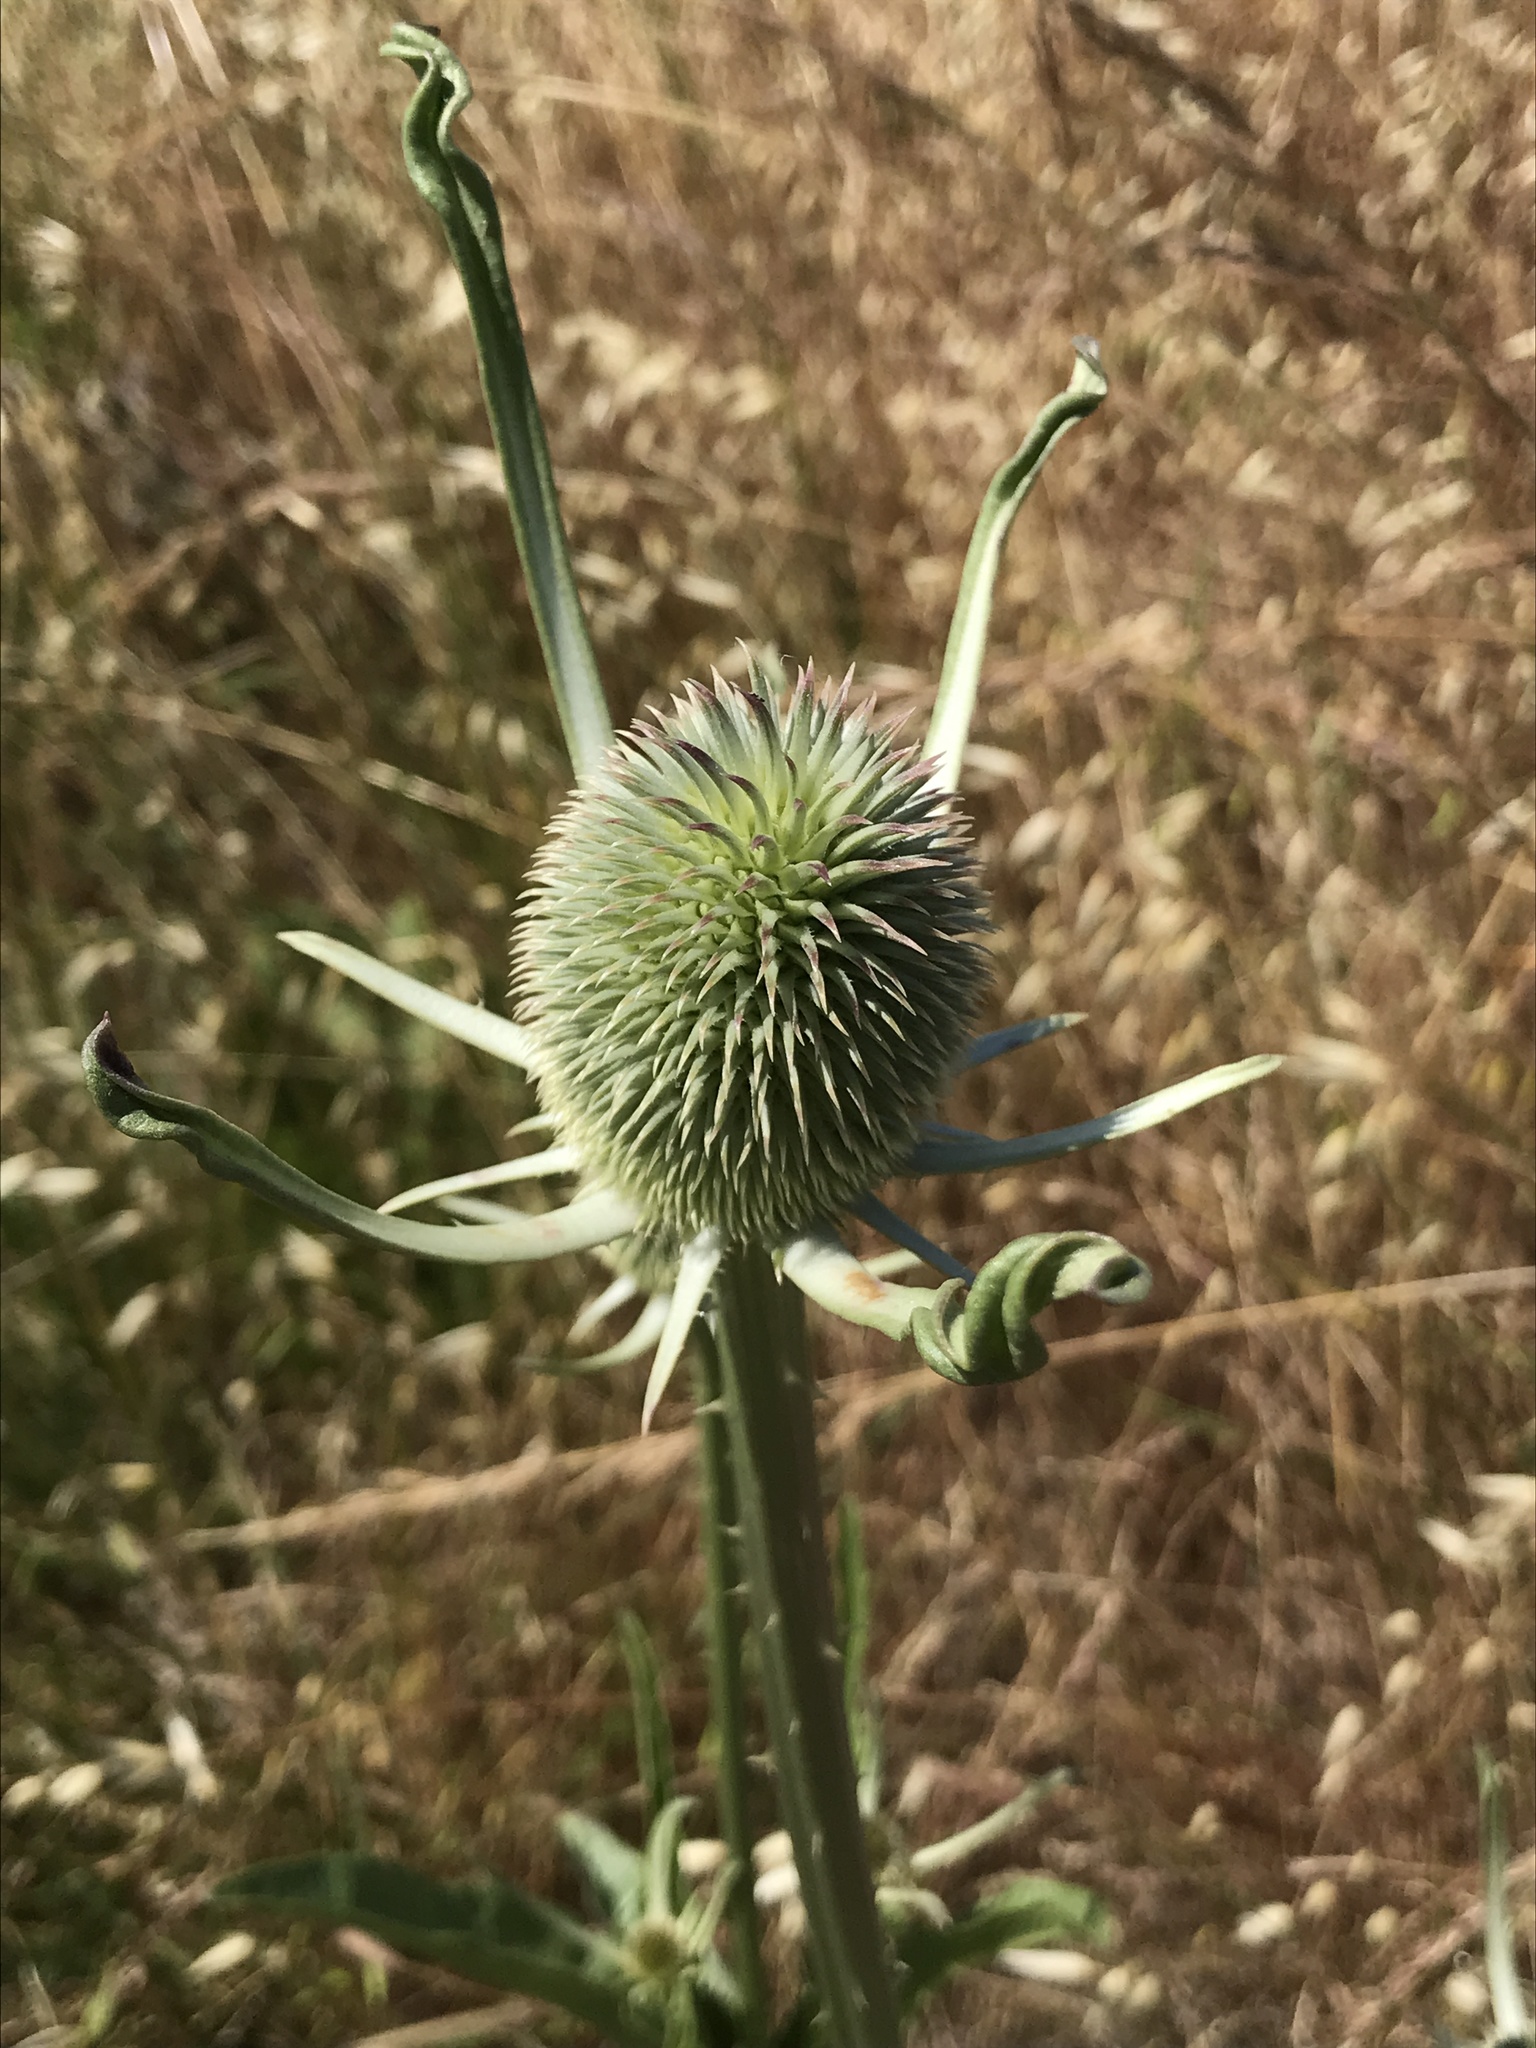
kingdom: Plantae
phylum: Tracheophyta
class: Magnoliopsida
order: Dipsacales
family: Caprifoliaceae
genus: Dipsacus
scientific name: Dipsacus sativus
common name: Fuller's teasel
